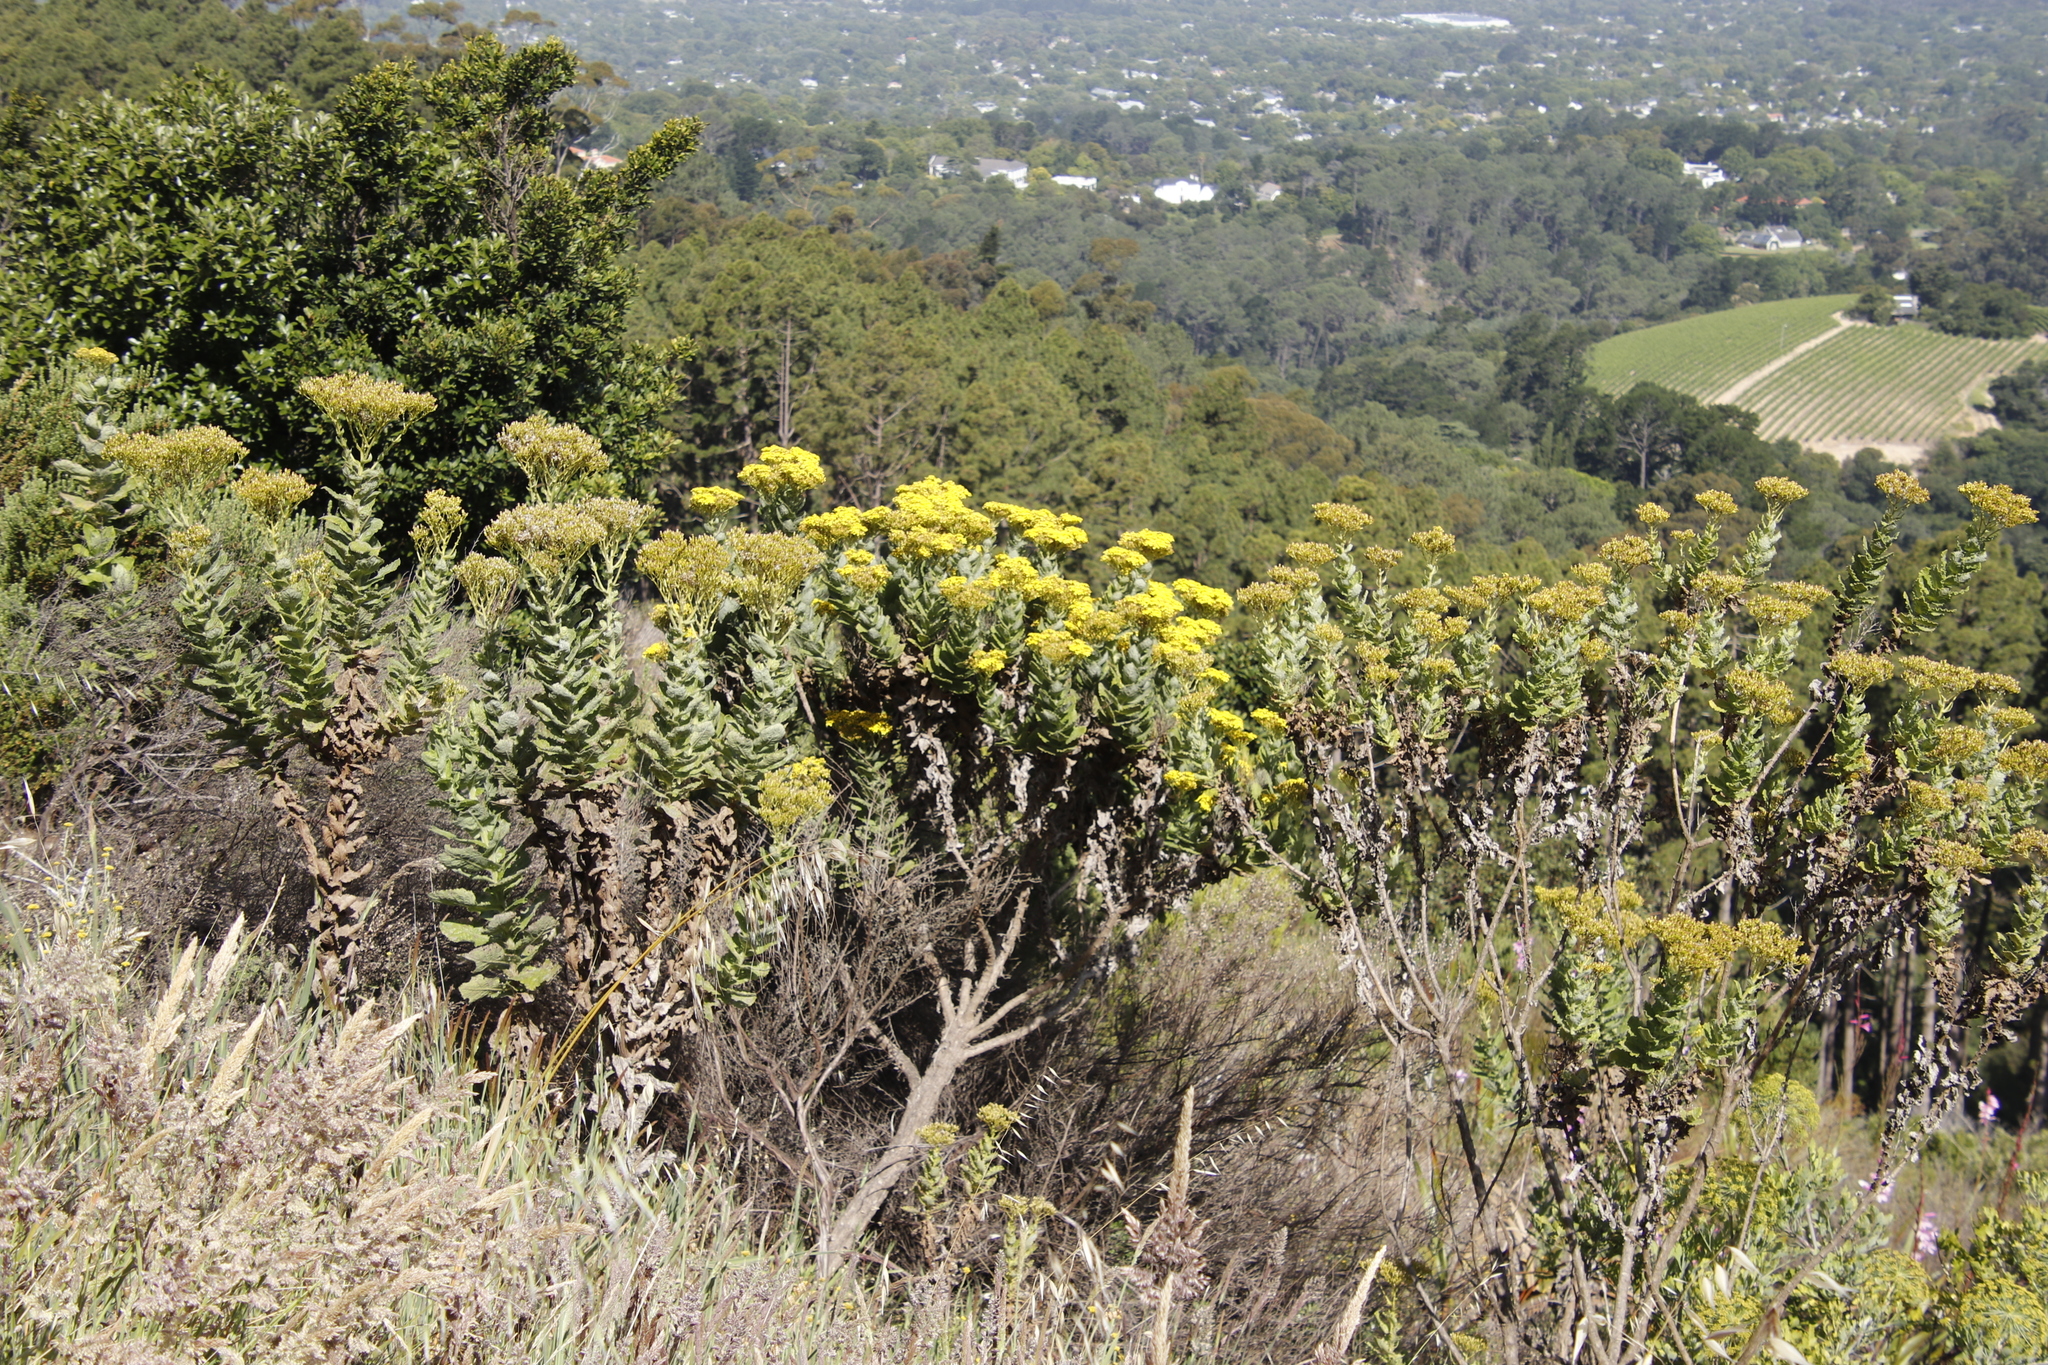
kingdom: Plantae
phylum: Tracheophyta
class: Magnoliopsida
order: Asterales
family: Asteraceae
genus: Senecio
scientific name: Senecio rigidus
